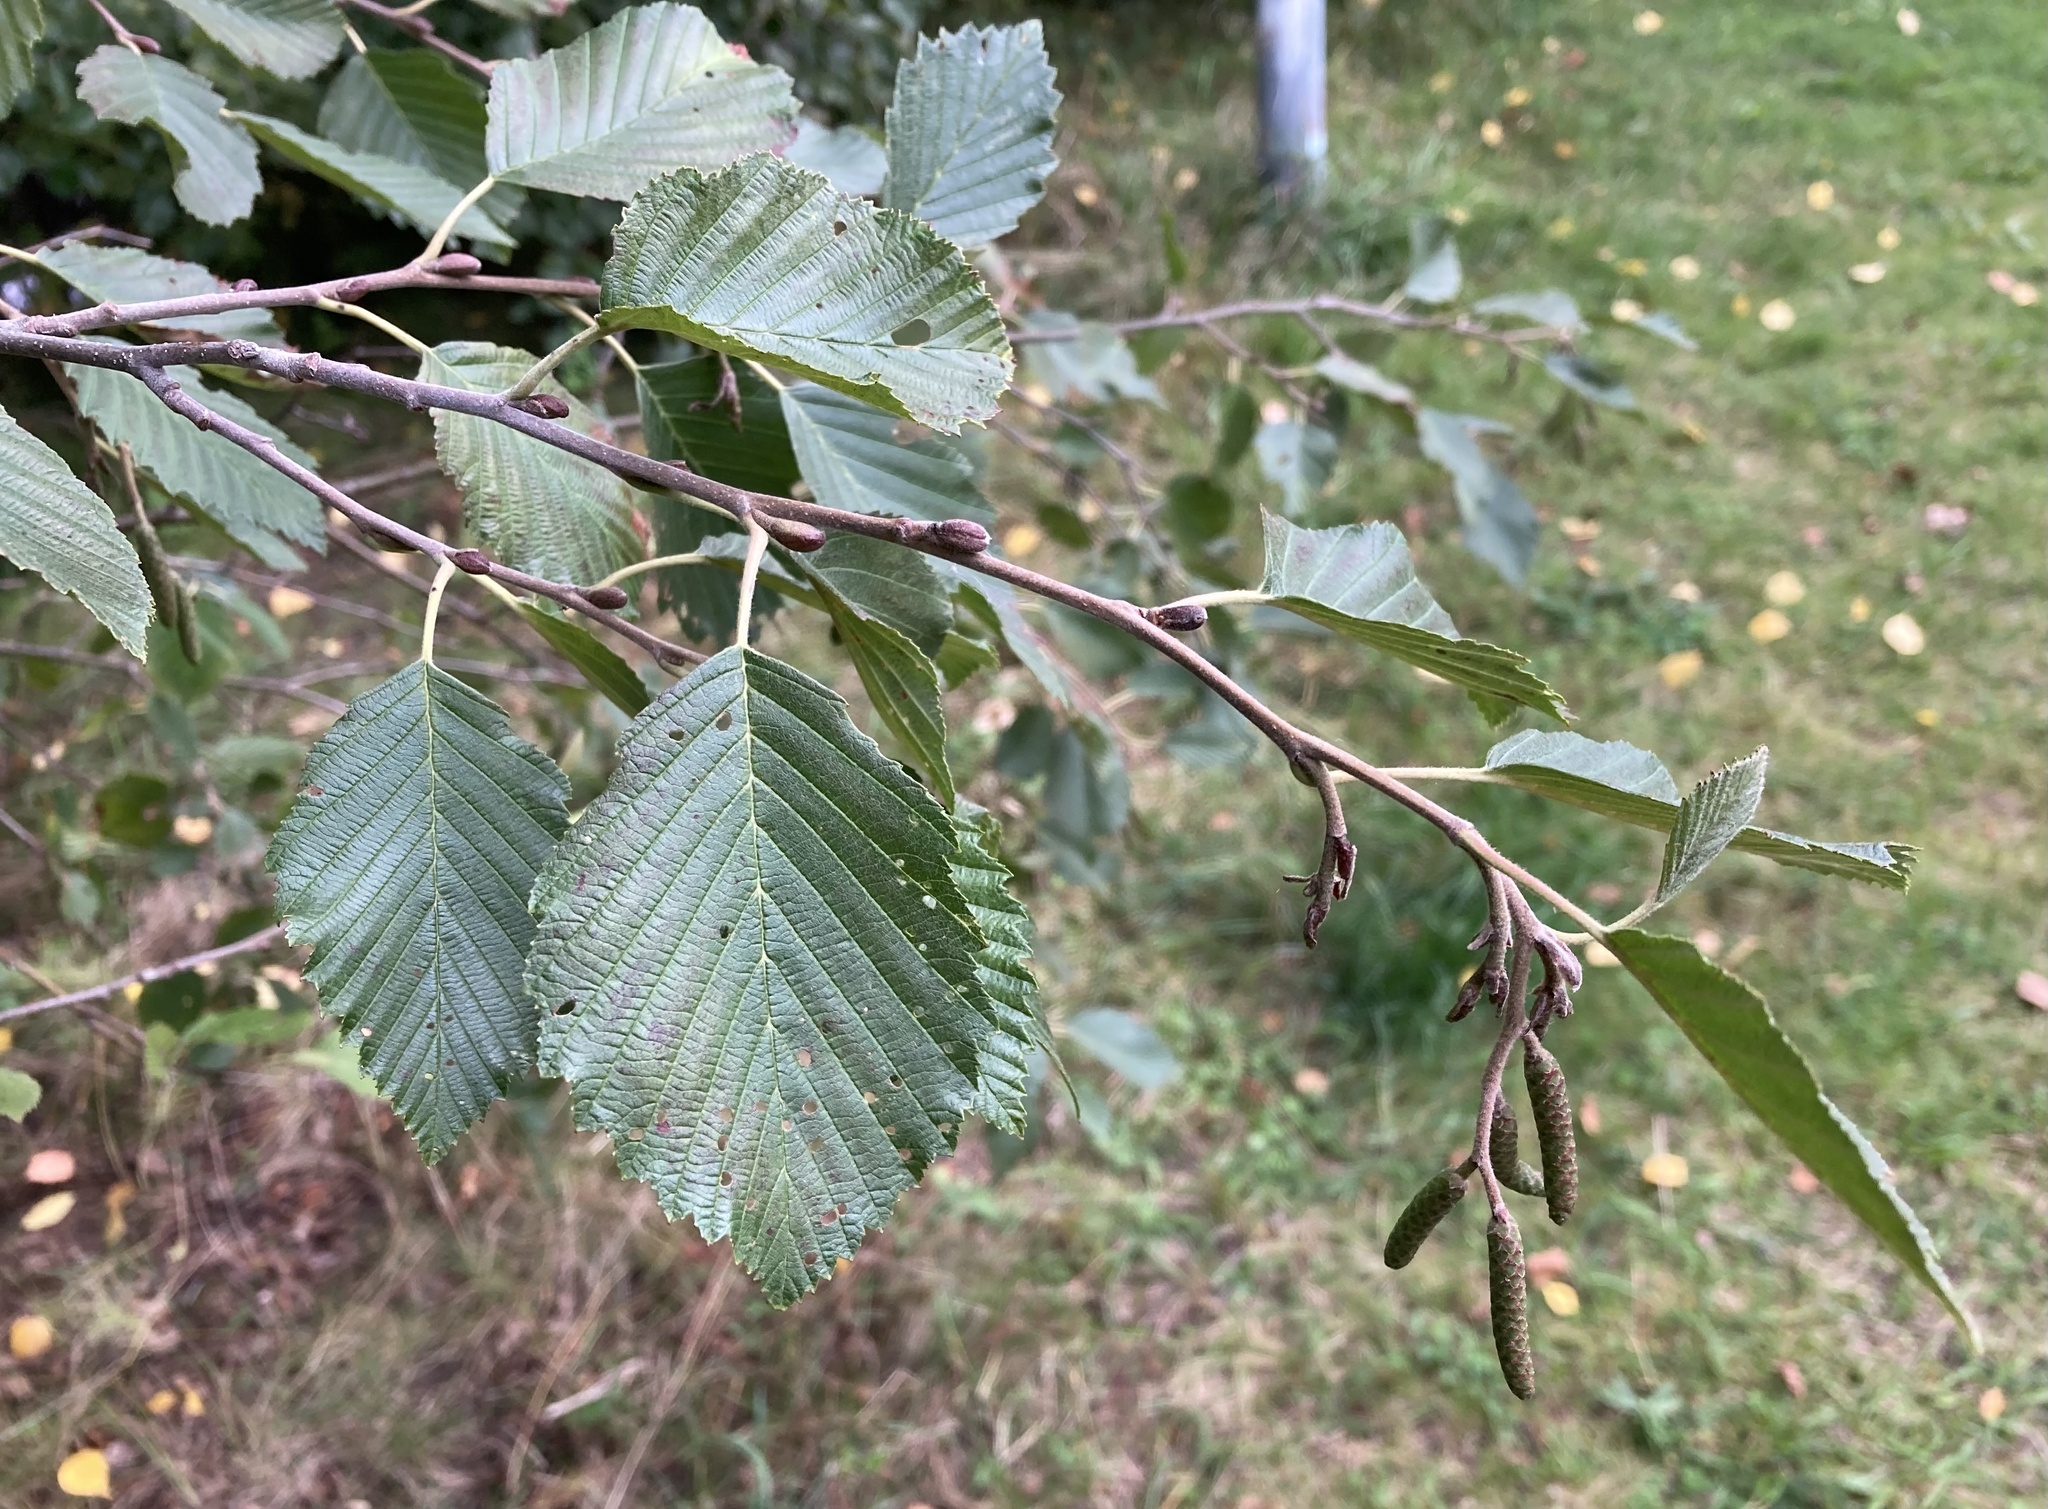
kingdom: Plantae
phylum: Tracheophyta
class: Magnoliopsida
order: Fagales
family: Betulaceae
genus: Alnus
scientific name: Alnus incana
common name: Grey alder
